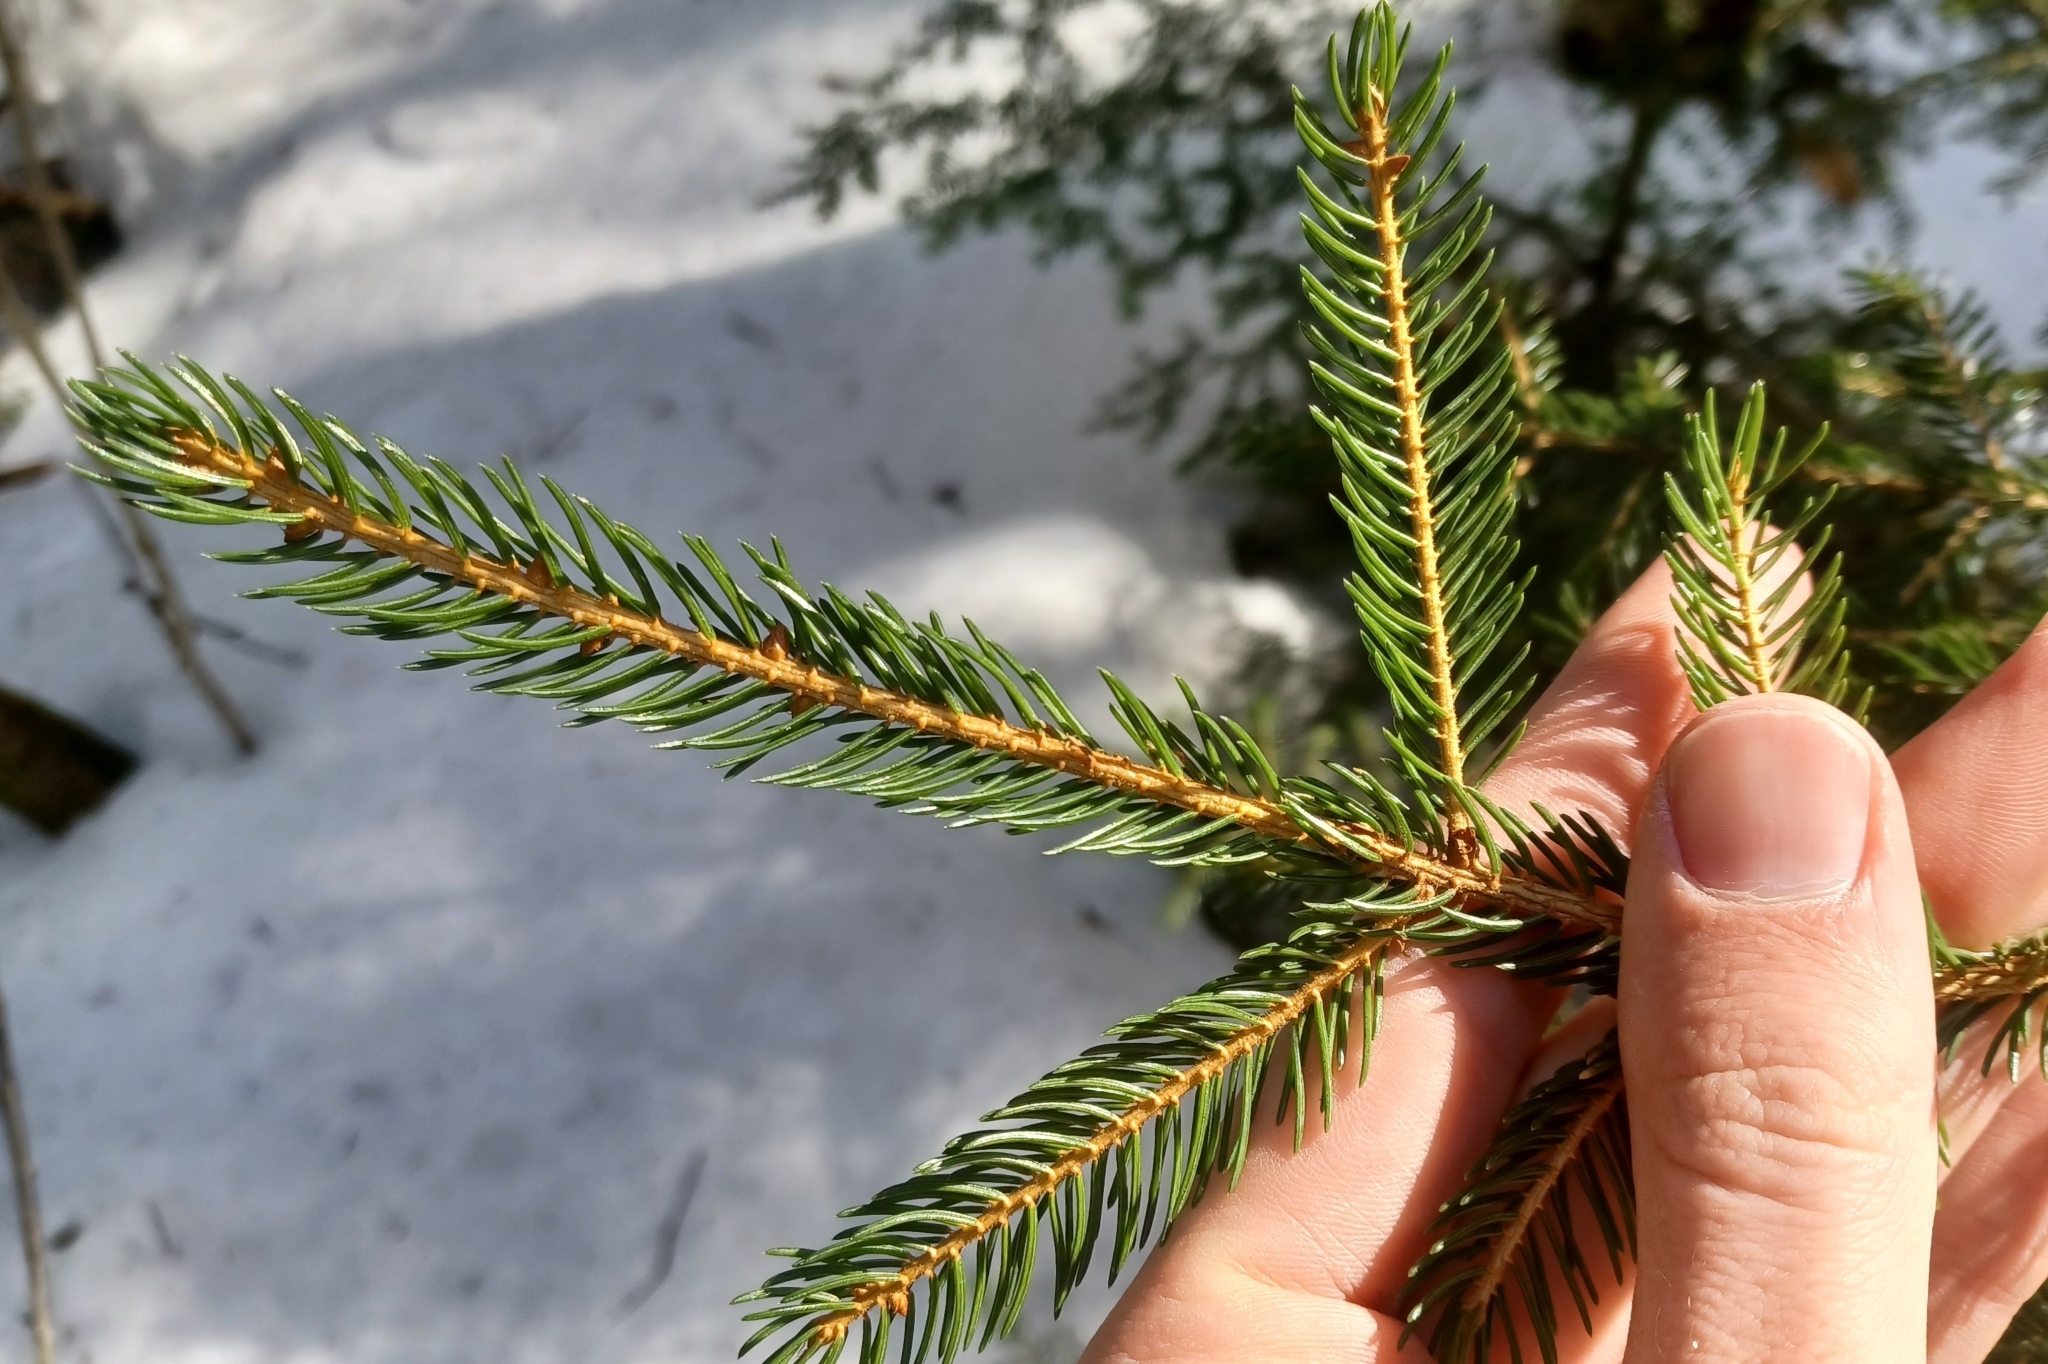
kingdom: Plantae
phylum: Tracheophyta
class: Pinopsida
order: Pinales
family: Pinaceae
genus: Picea
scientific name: Picea rubens
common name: Red spruce
